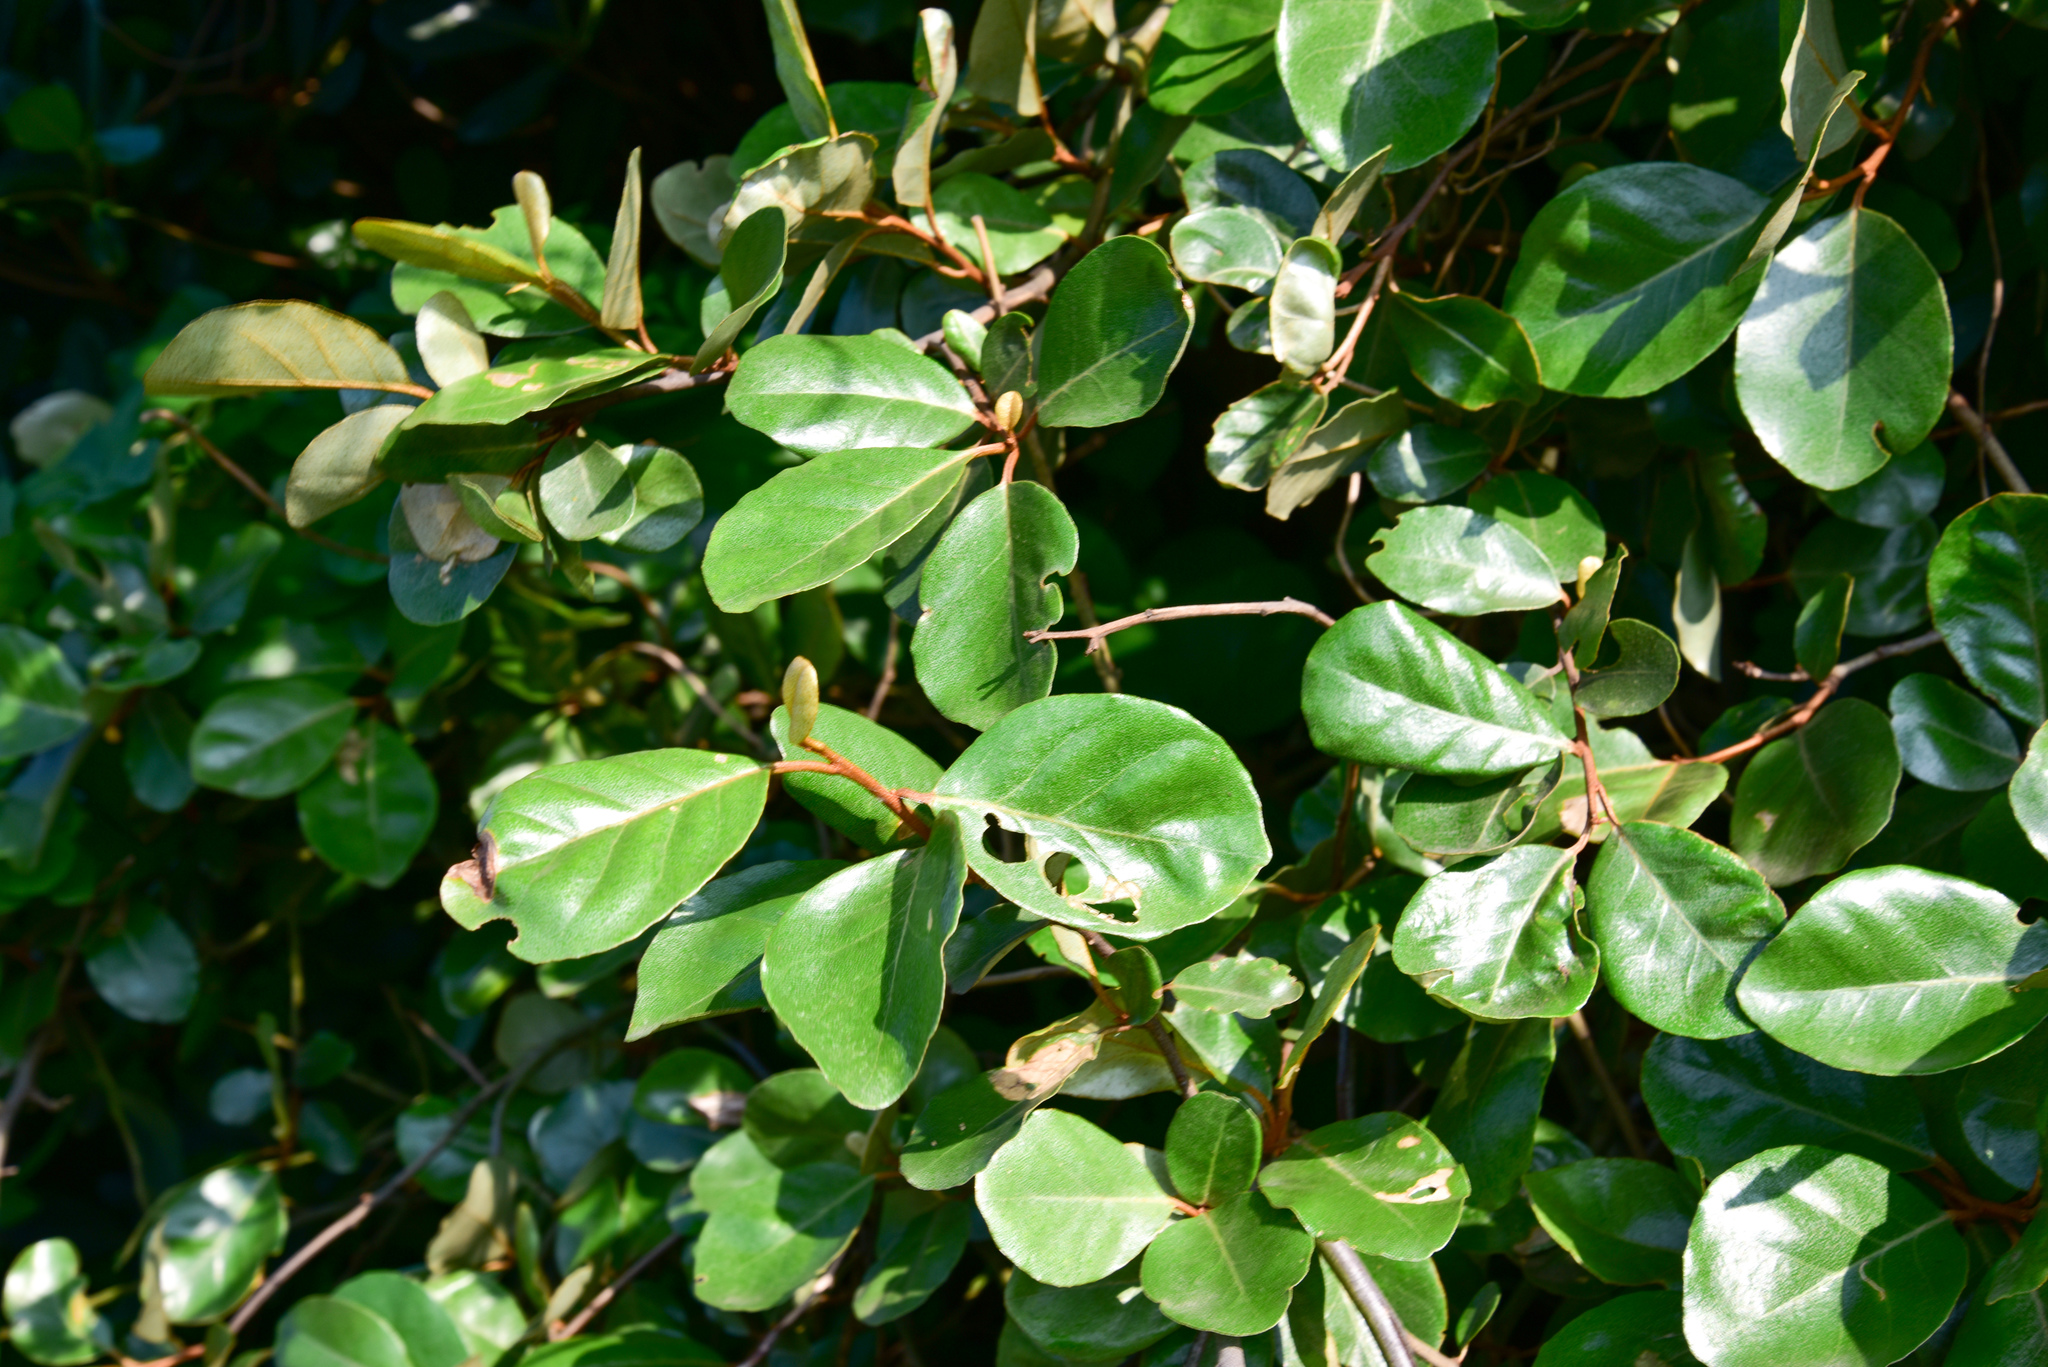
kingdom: Plantae
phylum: Tracheophyta
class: Magnoliopsida
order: Rosales
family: Elaeagnaceae
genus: Elaeagnus
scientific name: Elaeagnus oldhamii
